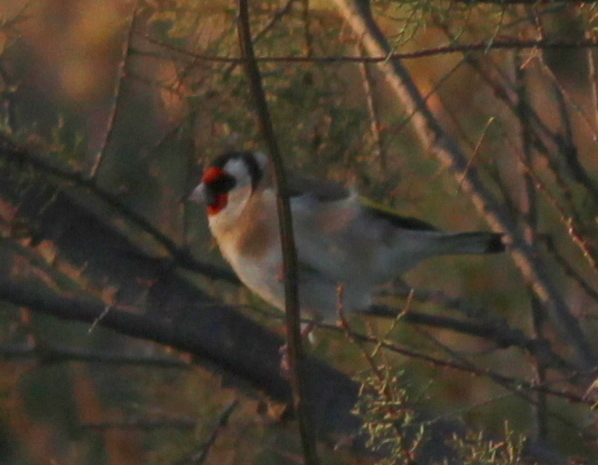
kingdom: Animalia
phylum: Chordata
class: Aves
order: Passeriformes
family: Fringillidae
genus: Carduelis
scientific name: Carduelis carduelis
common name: European goldfinch
